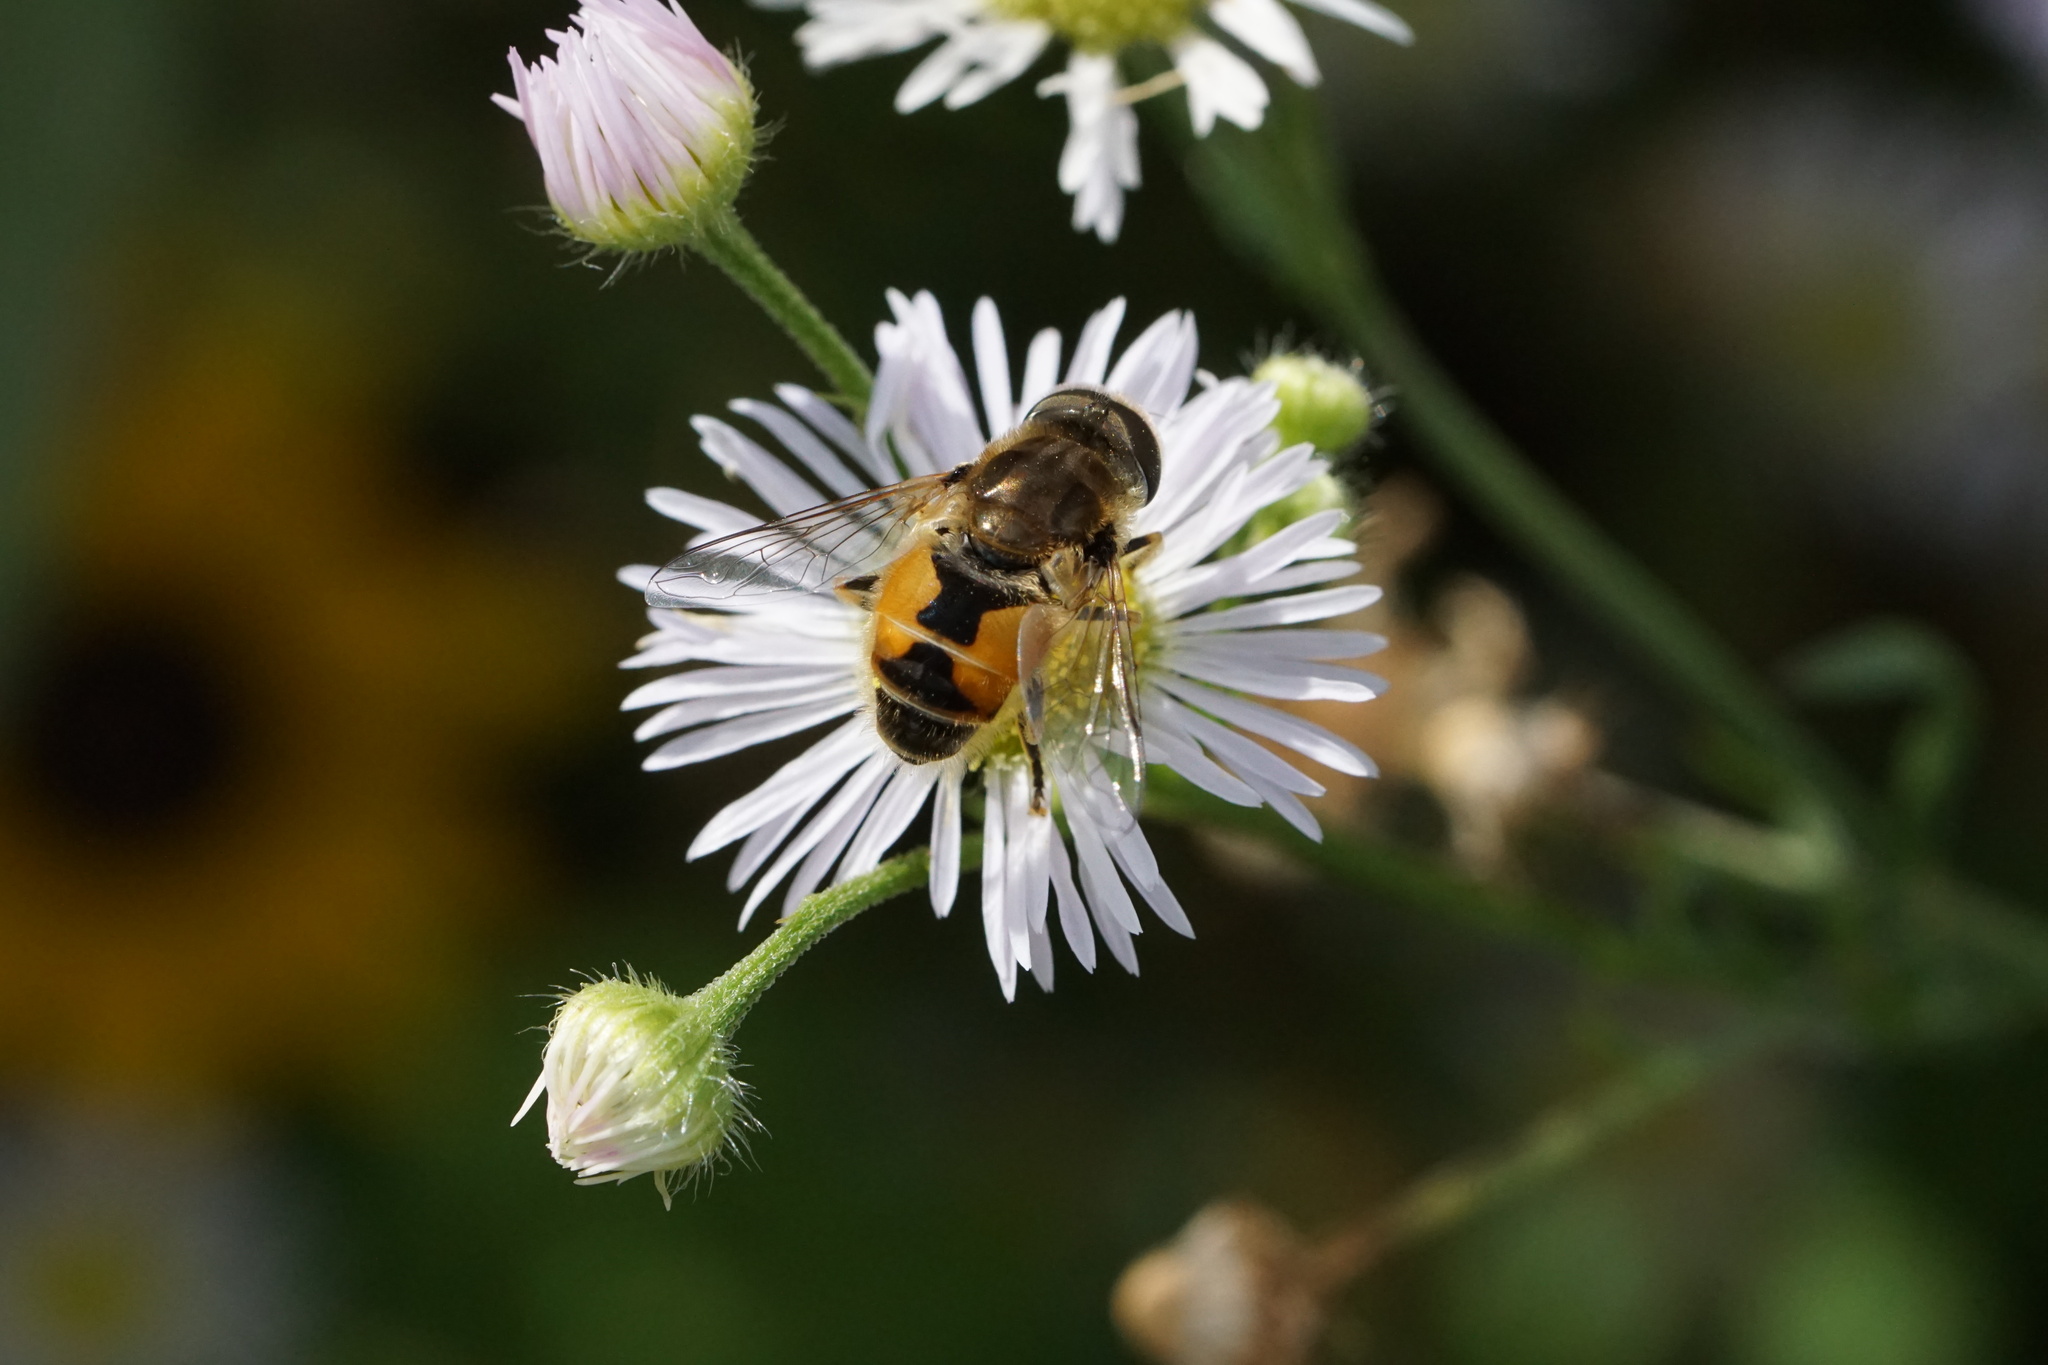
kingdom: Animalia
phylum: Arthropoda
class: Insecta
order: Diptera
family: Syrphidae
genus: Eristalis
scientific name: Eristalis arbustorum
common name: Hover fly
